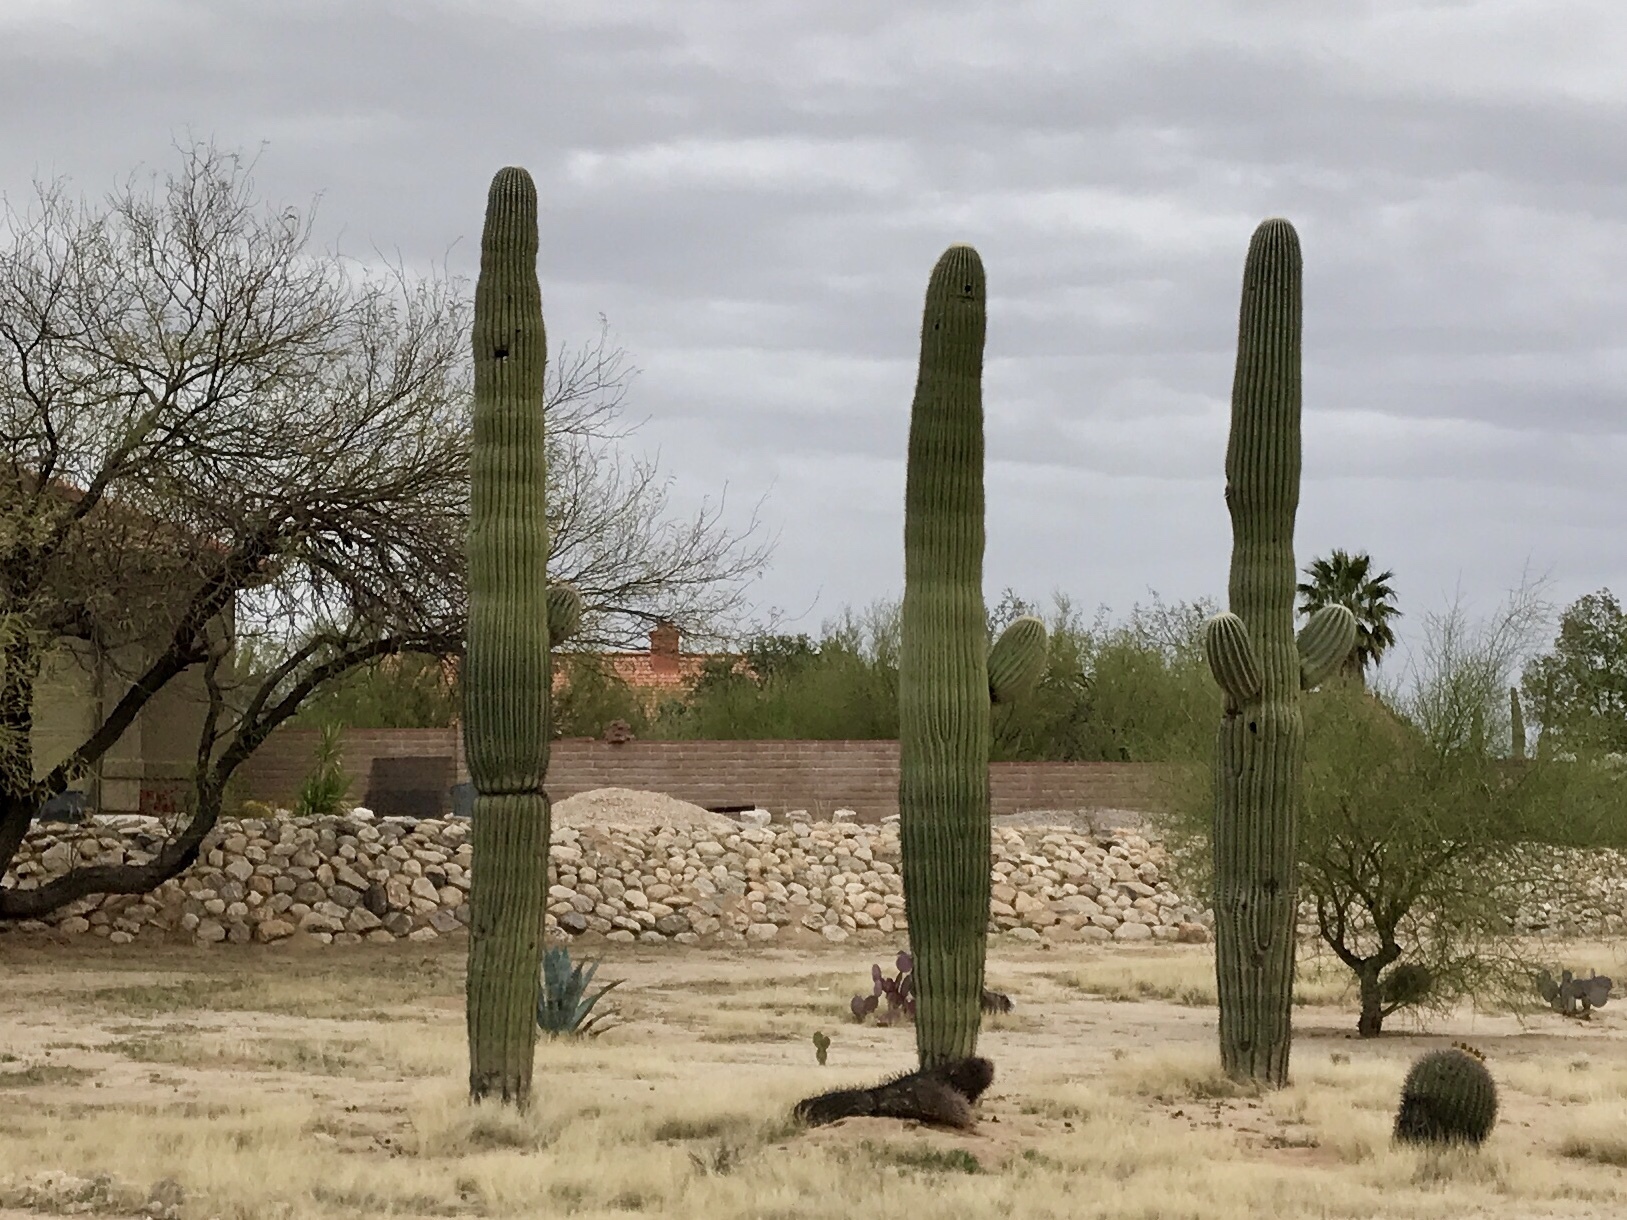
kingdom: Plantae
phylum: Tracheophyta
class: Magnoliopsida
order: Caryophyllales
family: Cactaceae
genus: Carnegiea
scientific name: Carnegiea gigantea
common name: Saguaro
